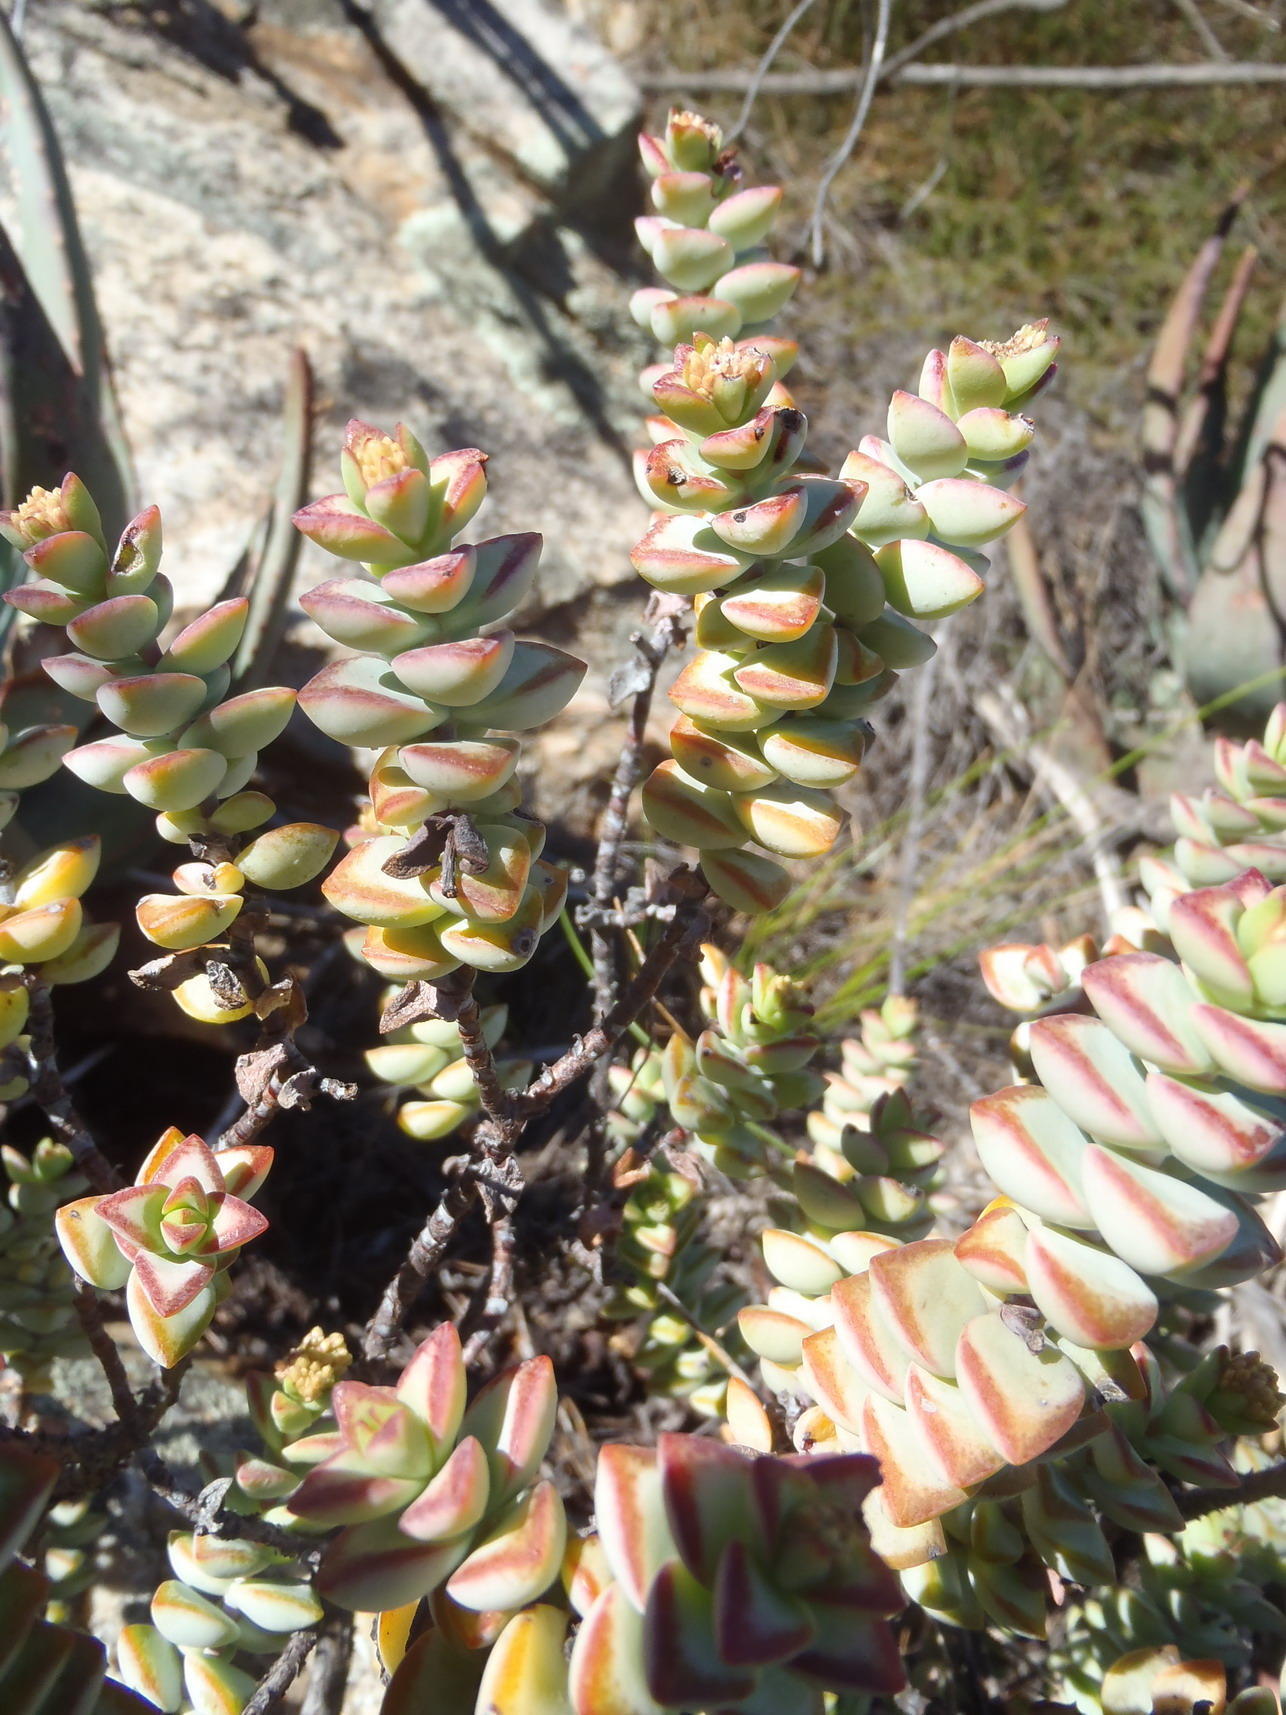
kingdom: Plantae
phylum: Tracheophyta
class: Magnoliopsida
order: Saxifragales
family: Crassulaceae
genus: Crassula
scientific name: Crassula rupestris
